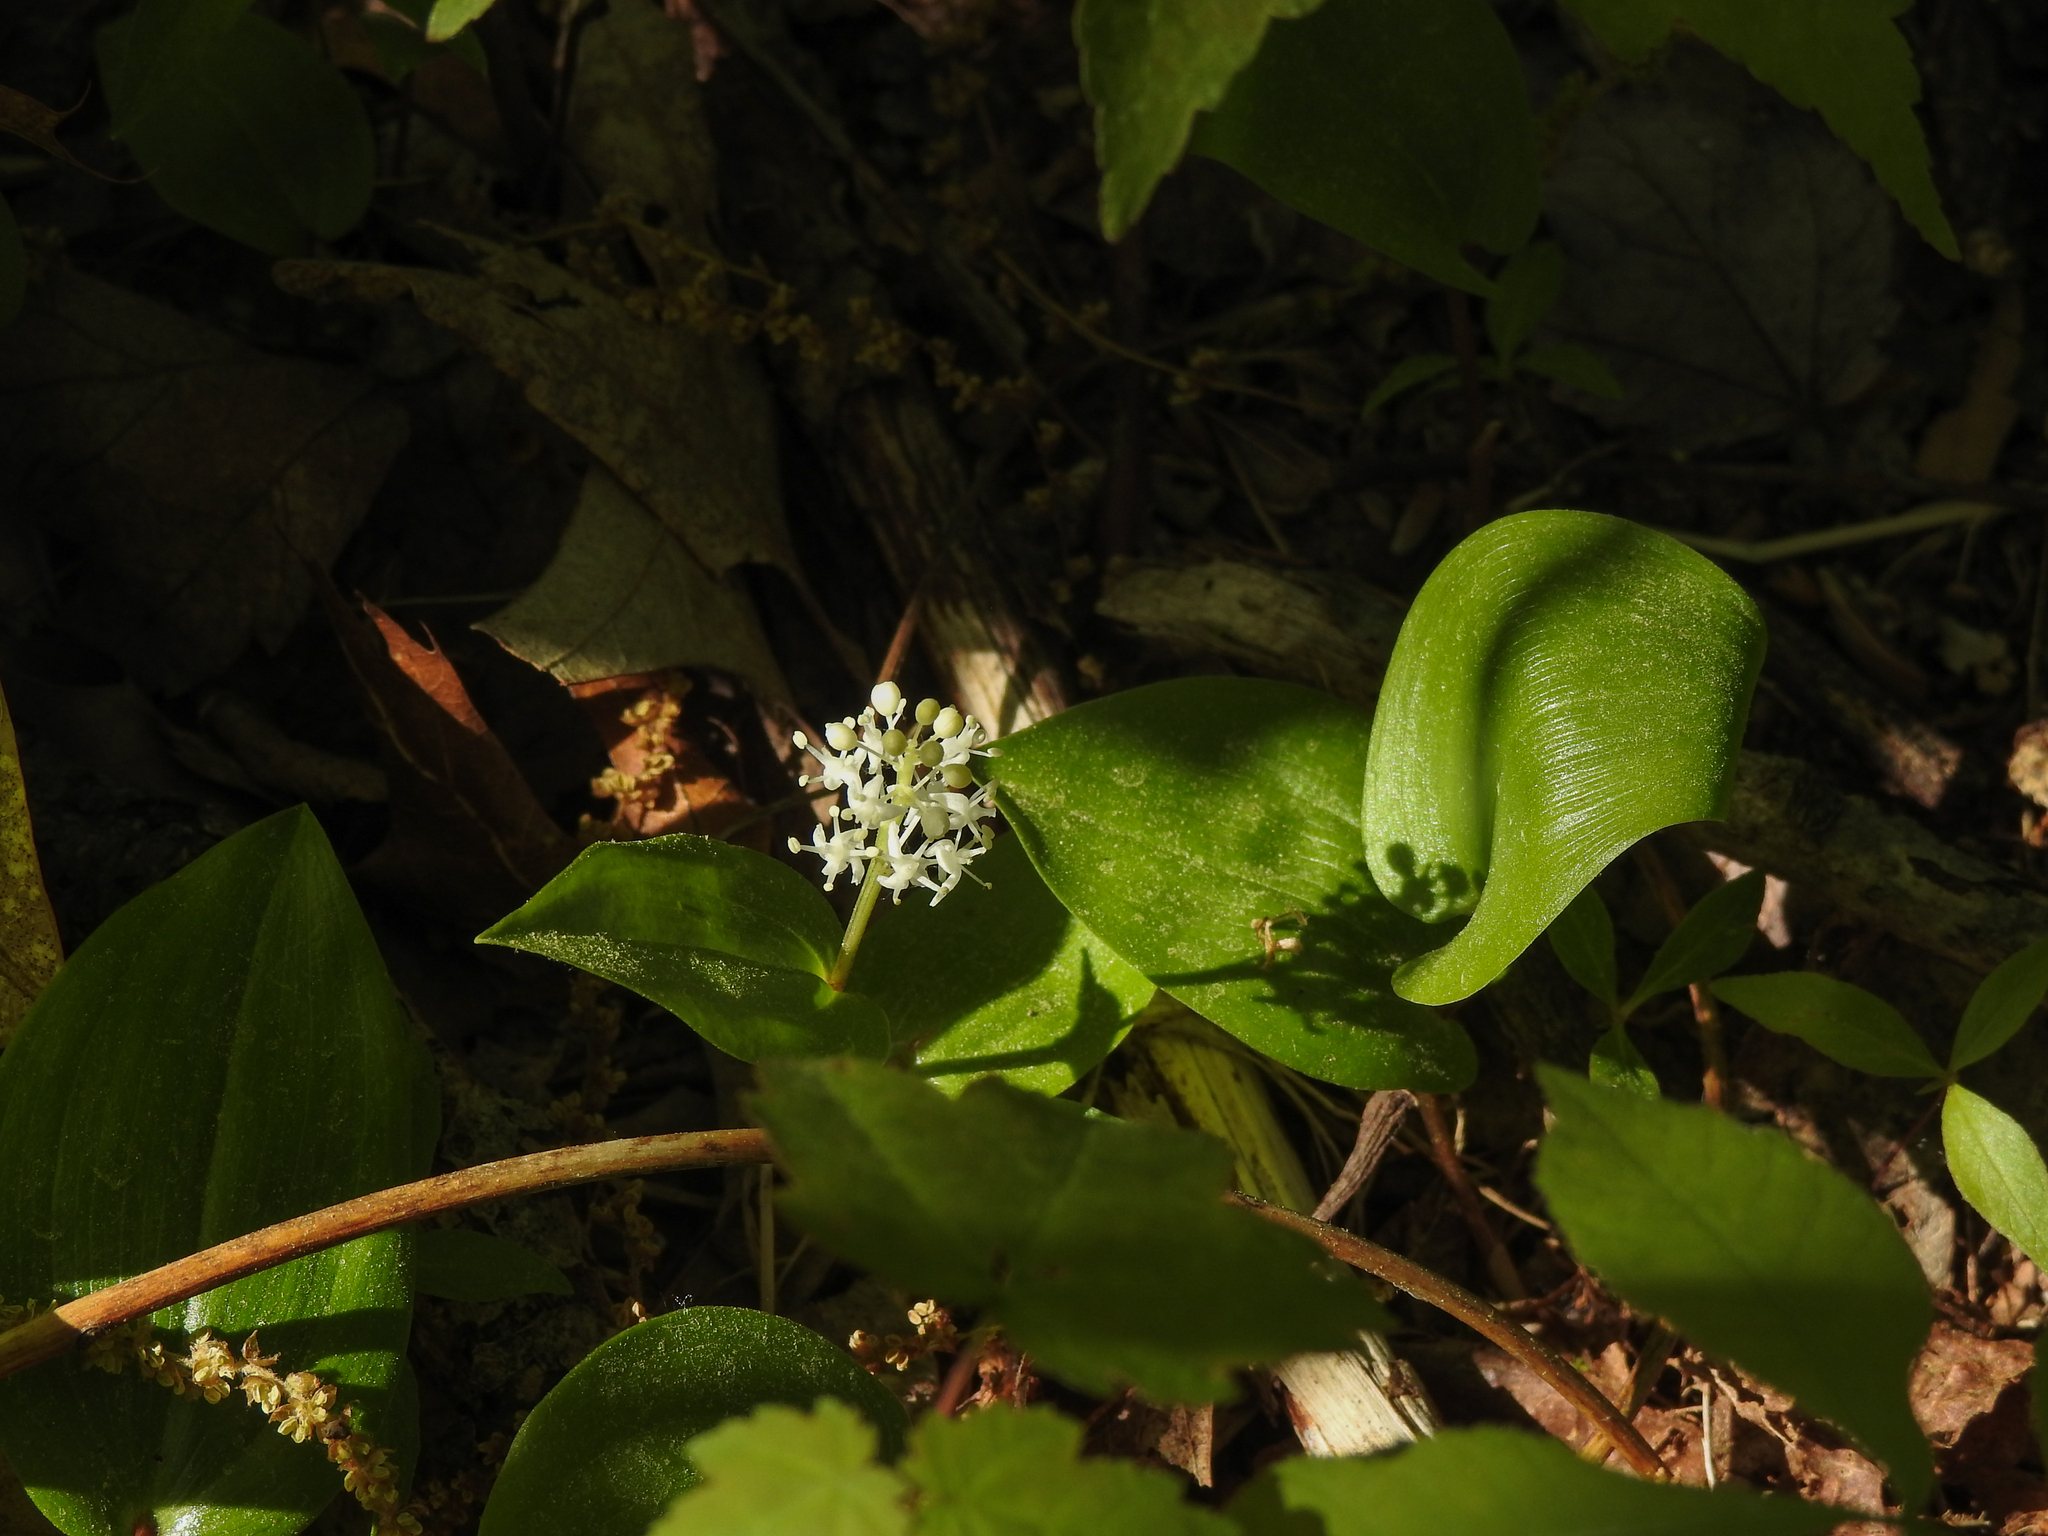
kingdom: Plantae
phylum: Tracheophyta
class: Liliopsida
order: Asparagales
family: Asparagaceae
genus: Maianthemum
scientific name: Maianthemum canadense
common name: False lily-of-the-valley
